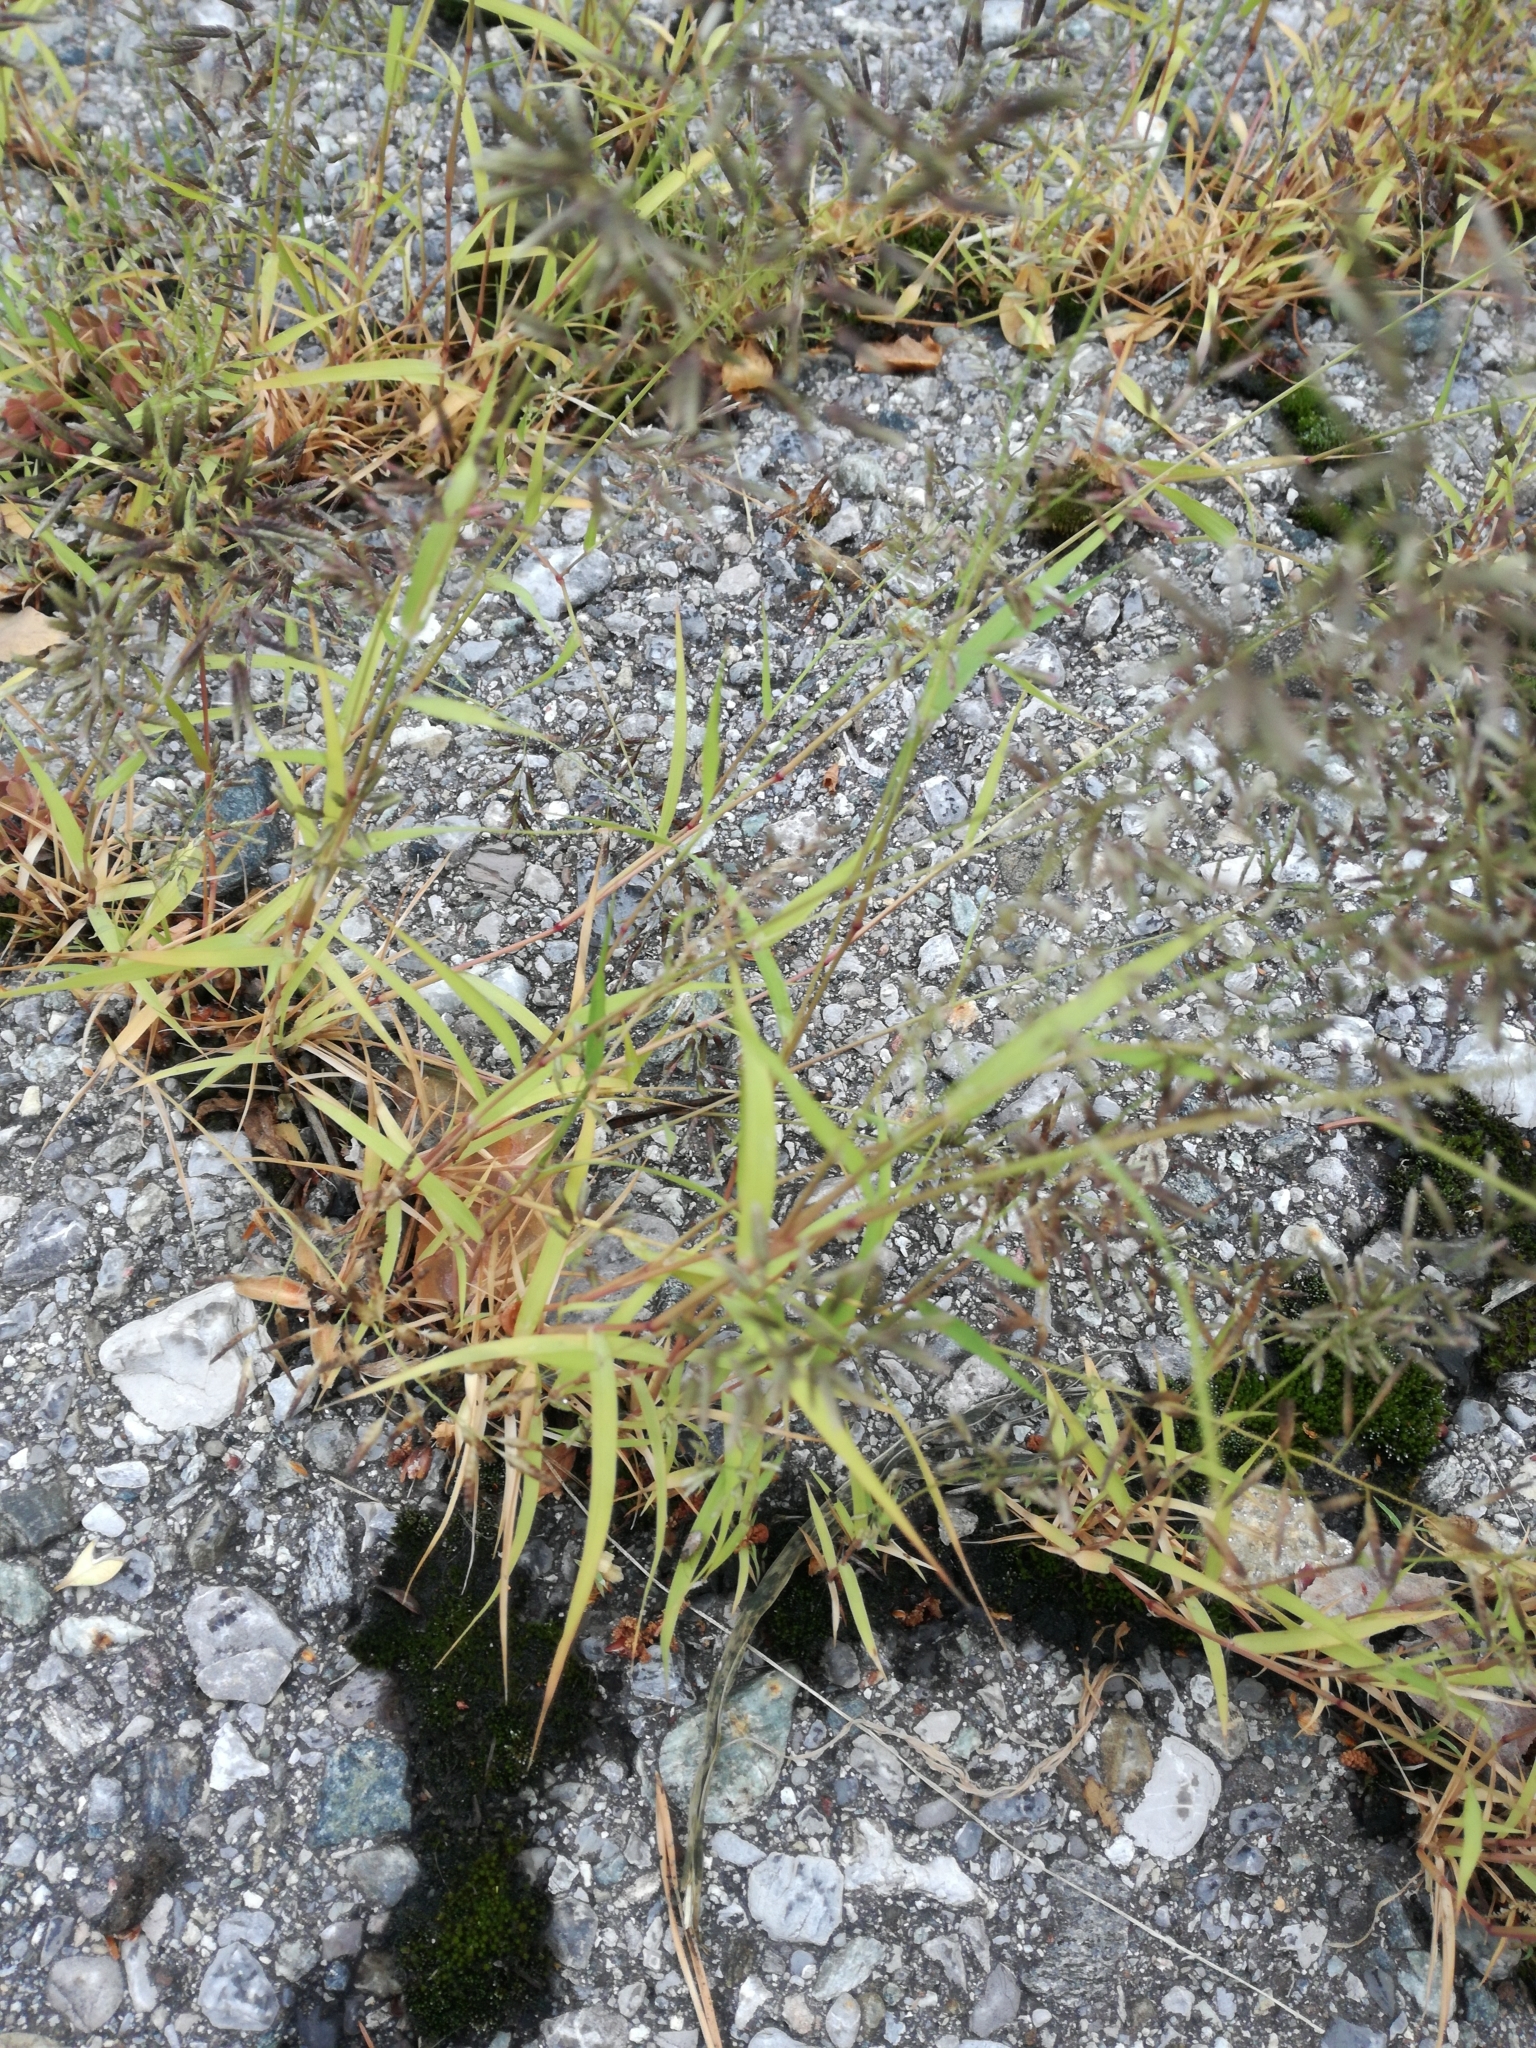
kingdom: Plantae
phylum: Tracheophyta
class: Liliopsida
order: Poales
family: Poaceae
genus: Eragrostis
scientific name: Eragrostis minor
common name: Small love-grass
